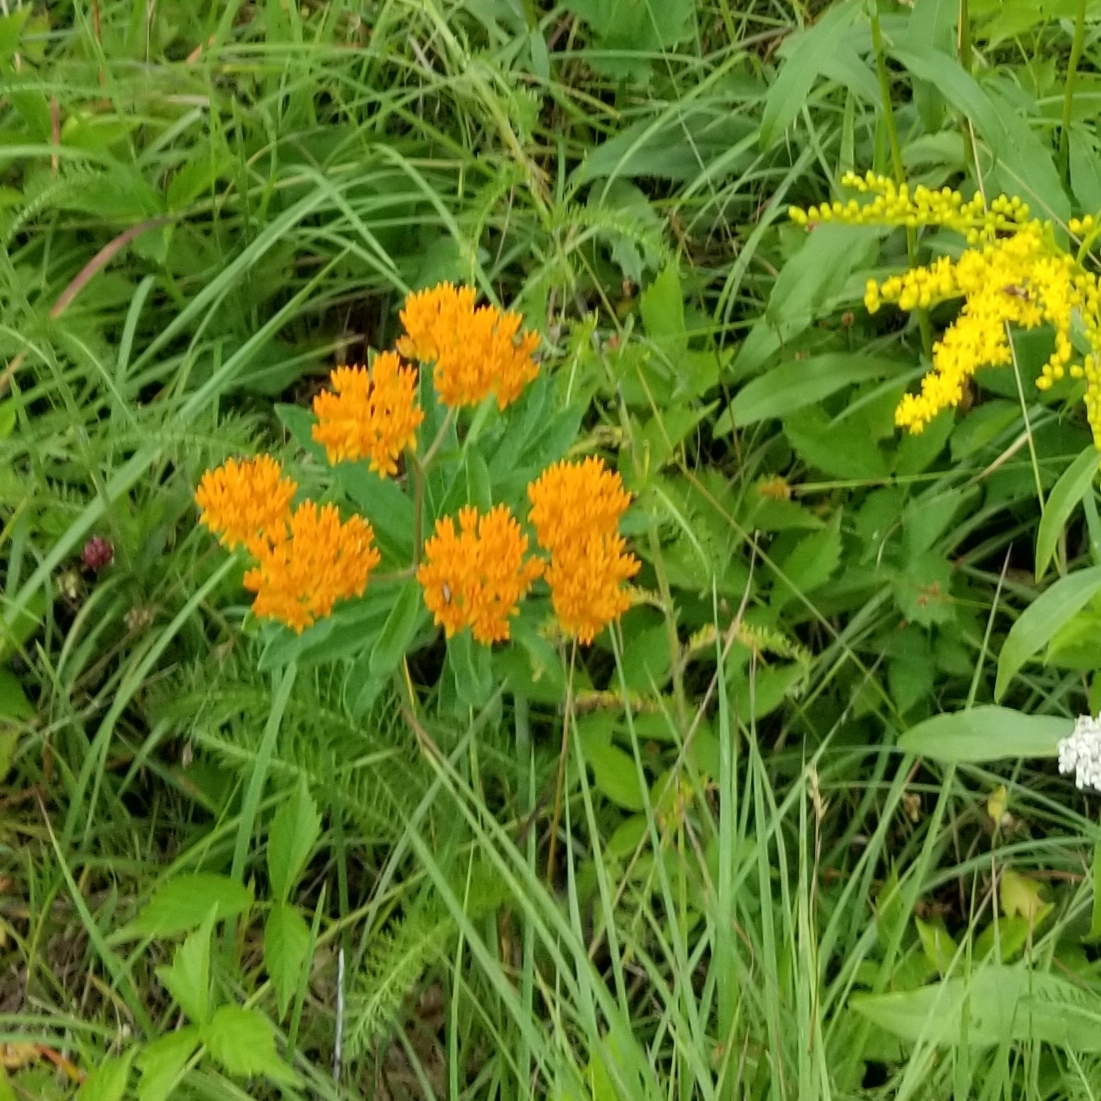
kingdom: Plantae
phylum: Tracheophyta
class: Magnoliopsida
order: Gentianales
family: Apocynaceae
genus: Asclepias
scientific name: Asclepias tuberosa
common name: Butterfly milkweed
